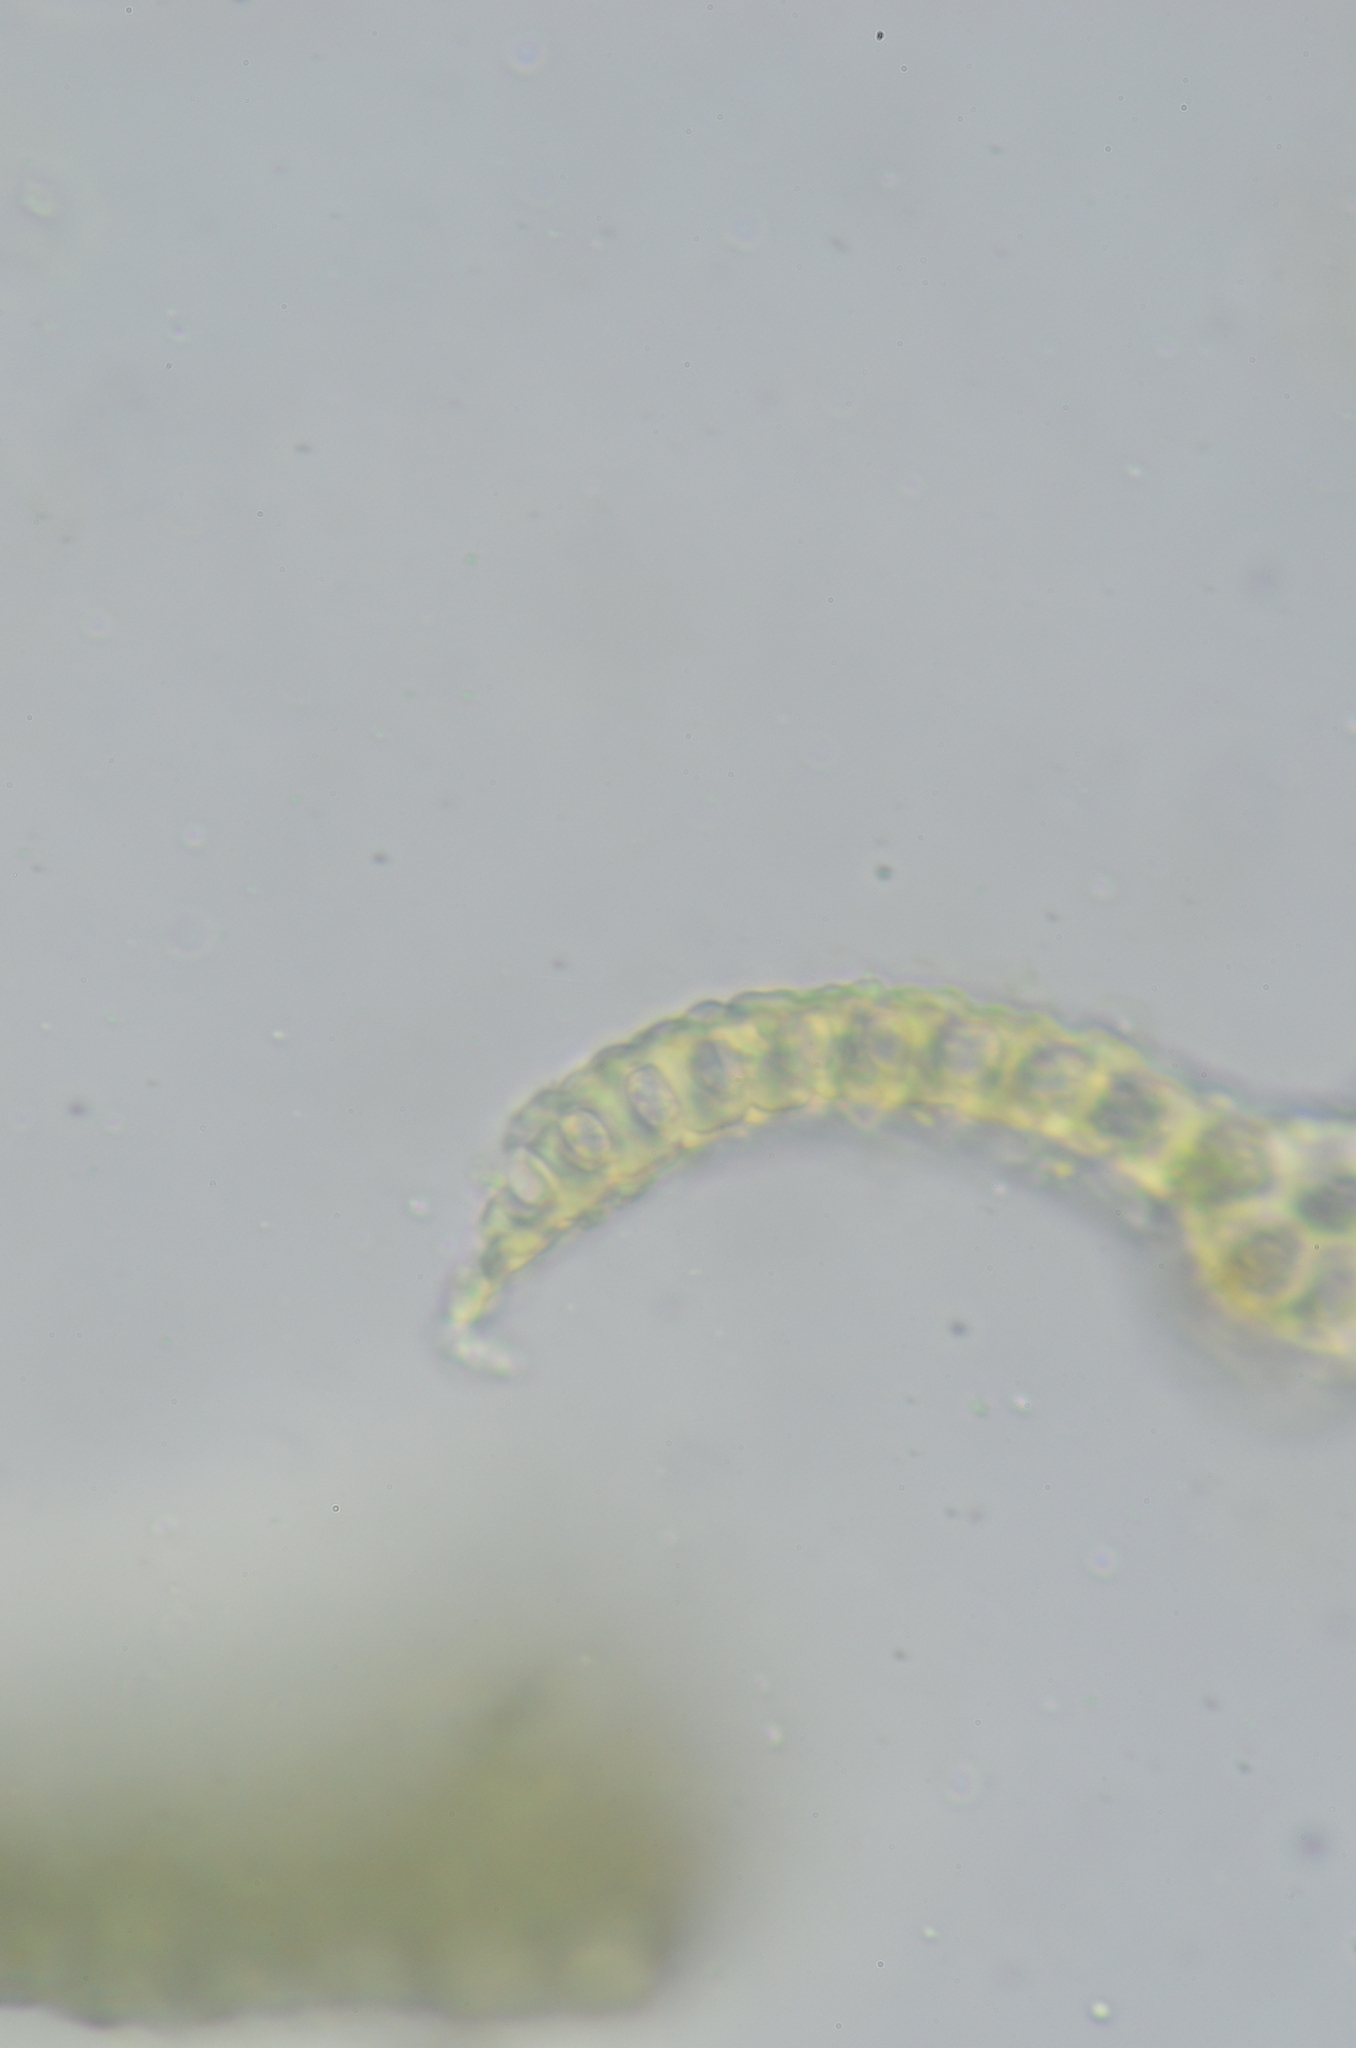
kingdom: Plantae
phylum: Bryophyta
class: Bryopsida
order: Grimmiales
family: Grimmiaceae
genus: Codriophorus
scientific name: Codriophorus acicularis
